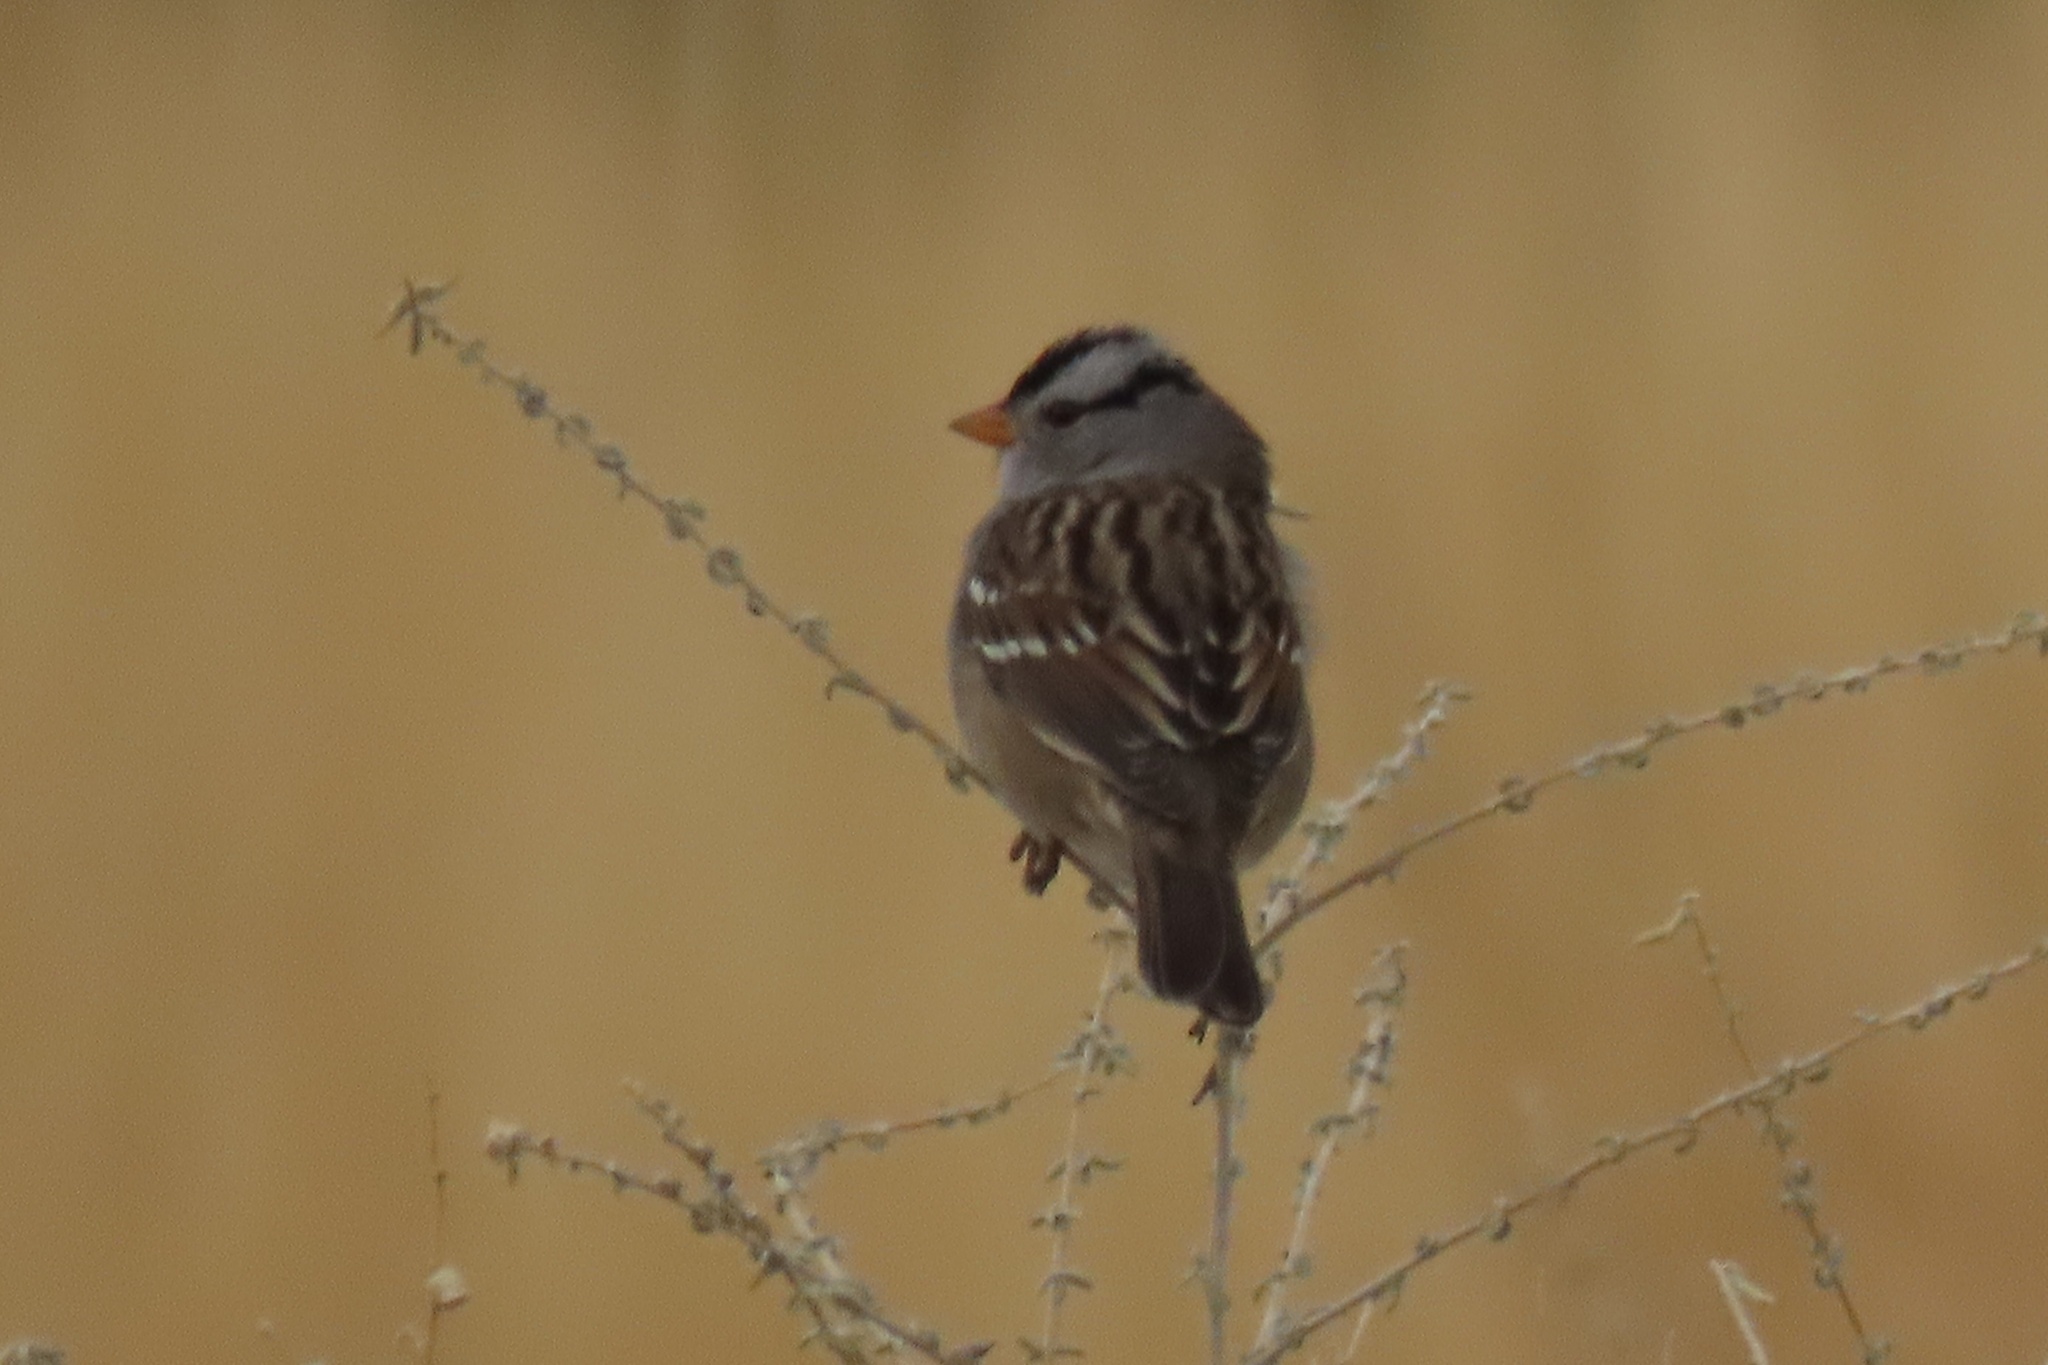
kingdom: Animalia
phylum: Chordata
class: Aves
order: Passeriformes
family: Passerellidae
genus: Zonotrichia
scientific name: Zonotrichia leucophrys
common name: White-crowned sparrow
